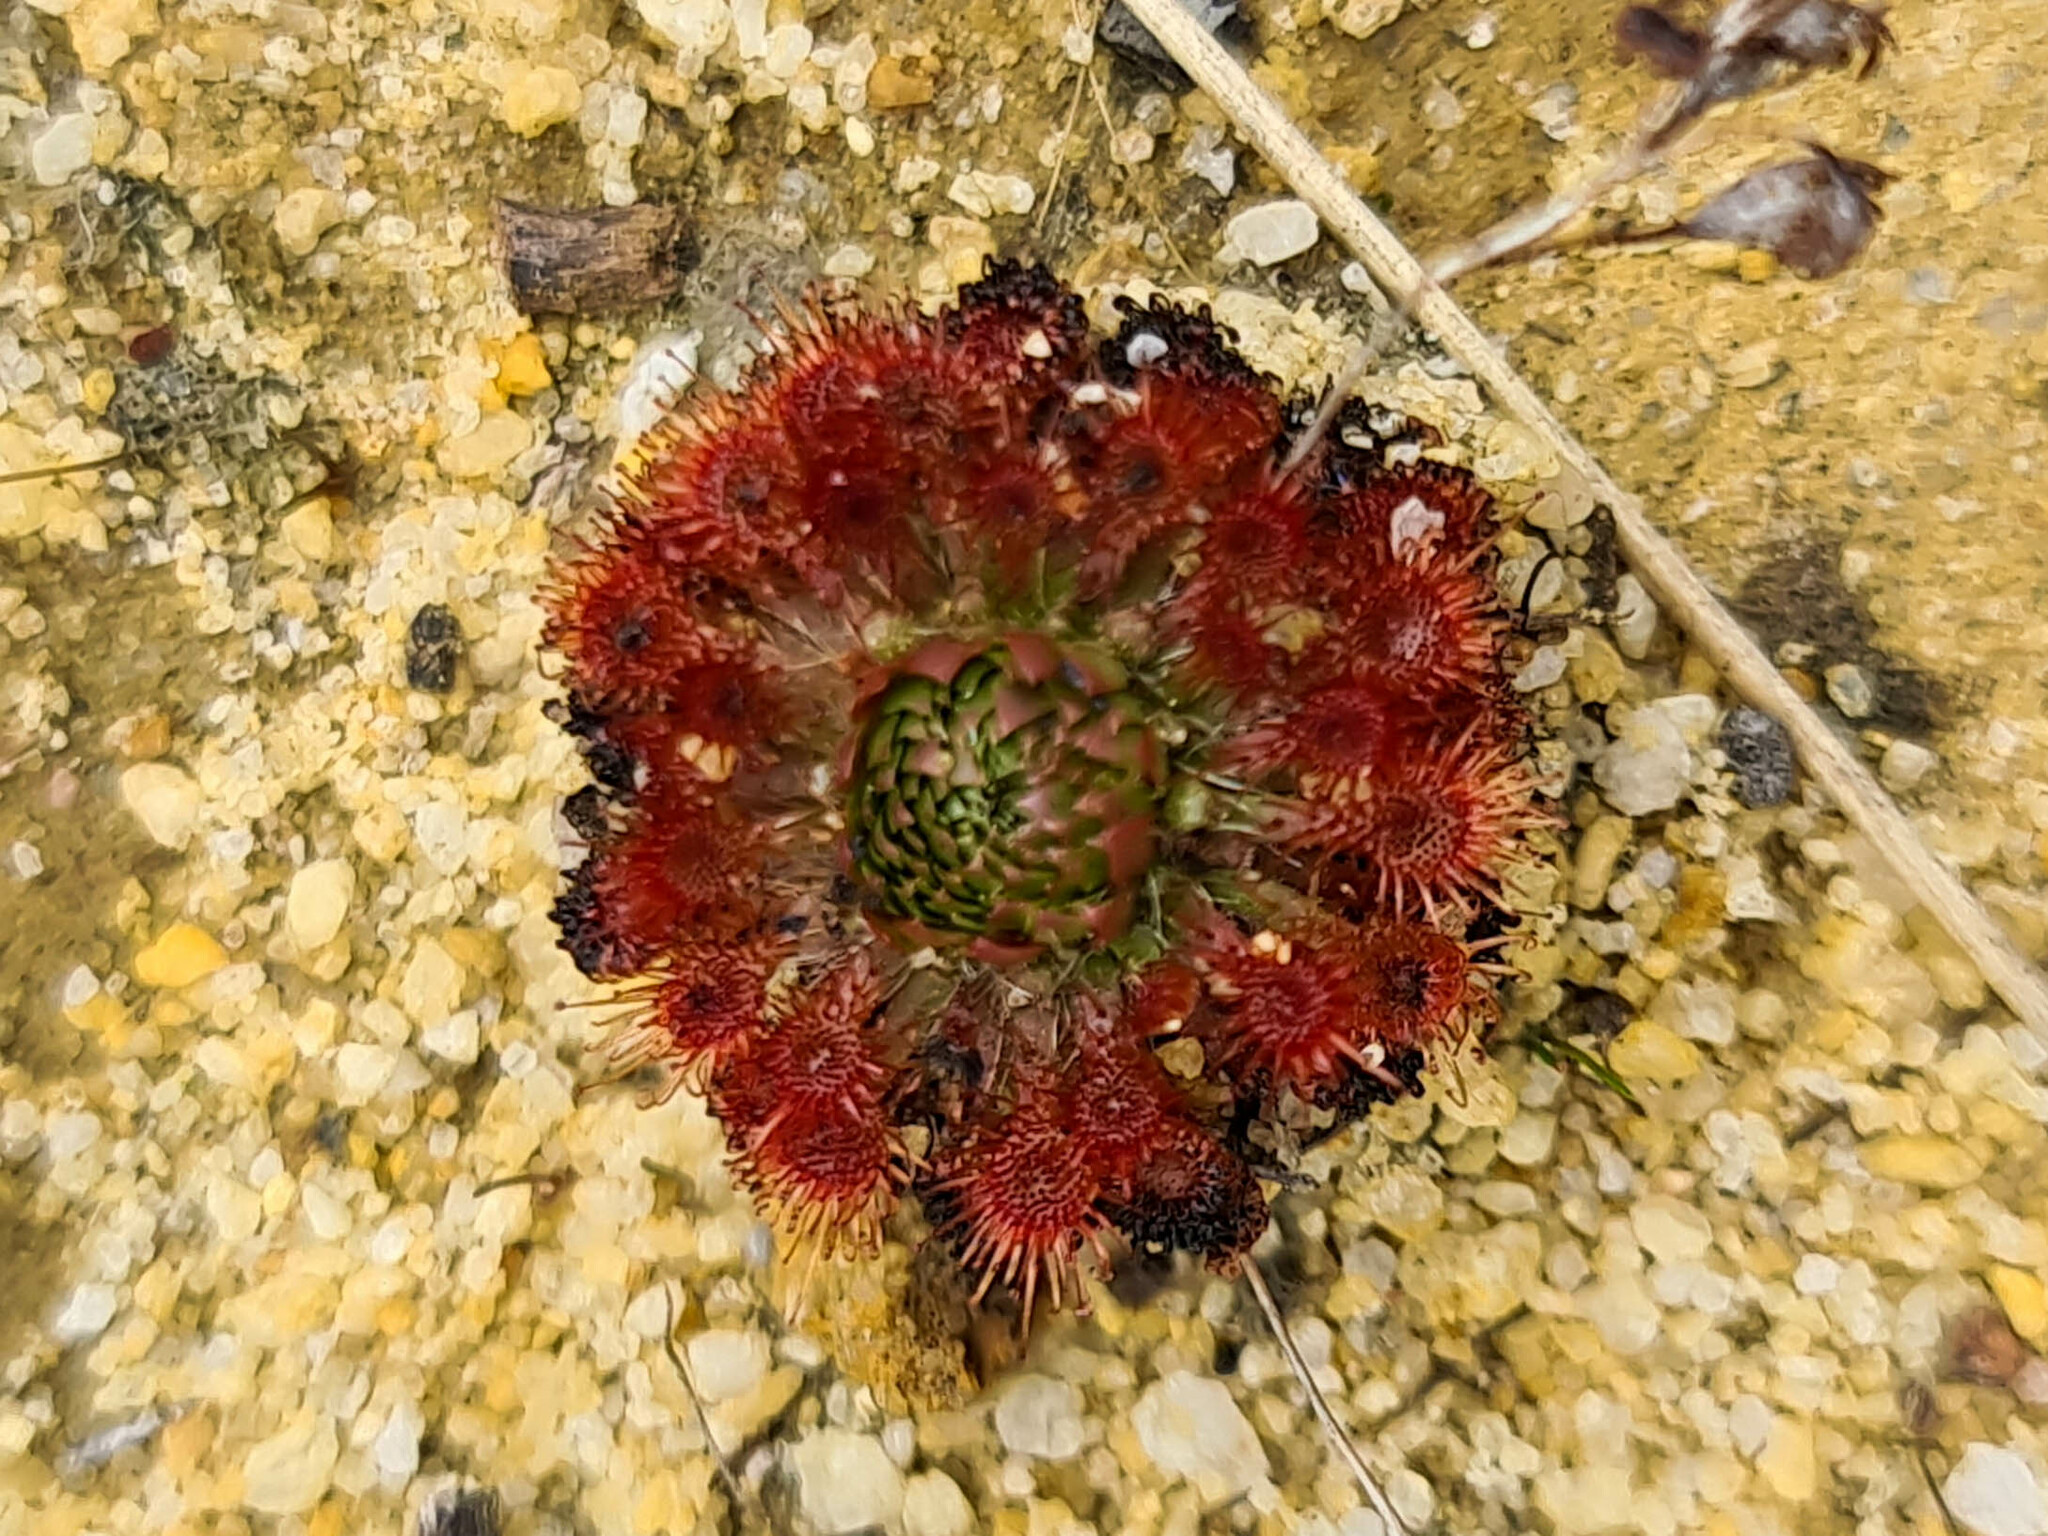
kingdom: Plantae
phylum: Tracheophyta
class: Magnoliopsida
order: Caryophyllales
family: Droseraceae
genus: Drosera
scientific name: Drosera patens
